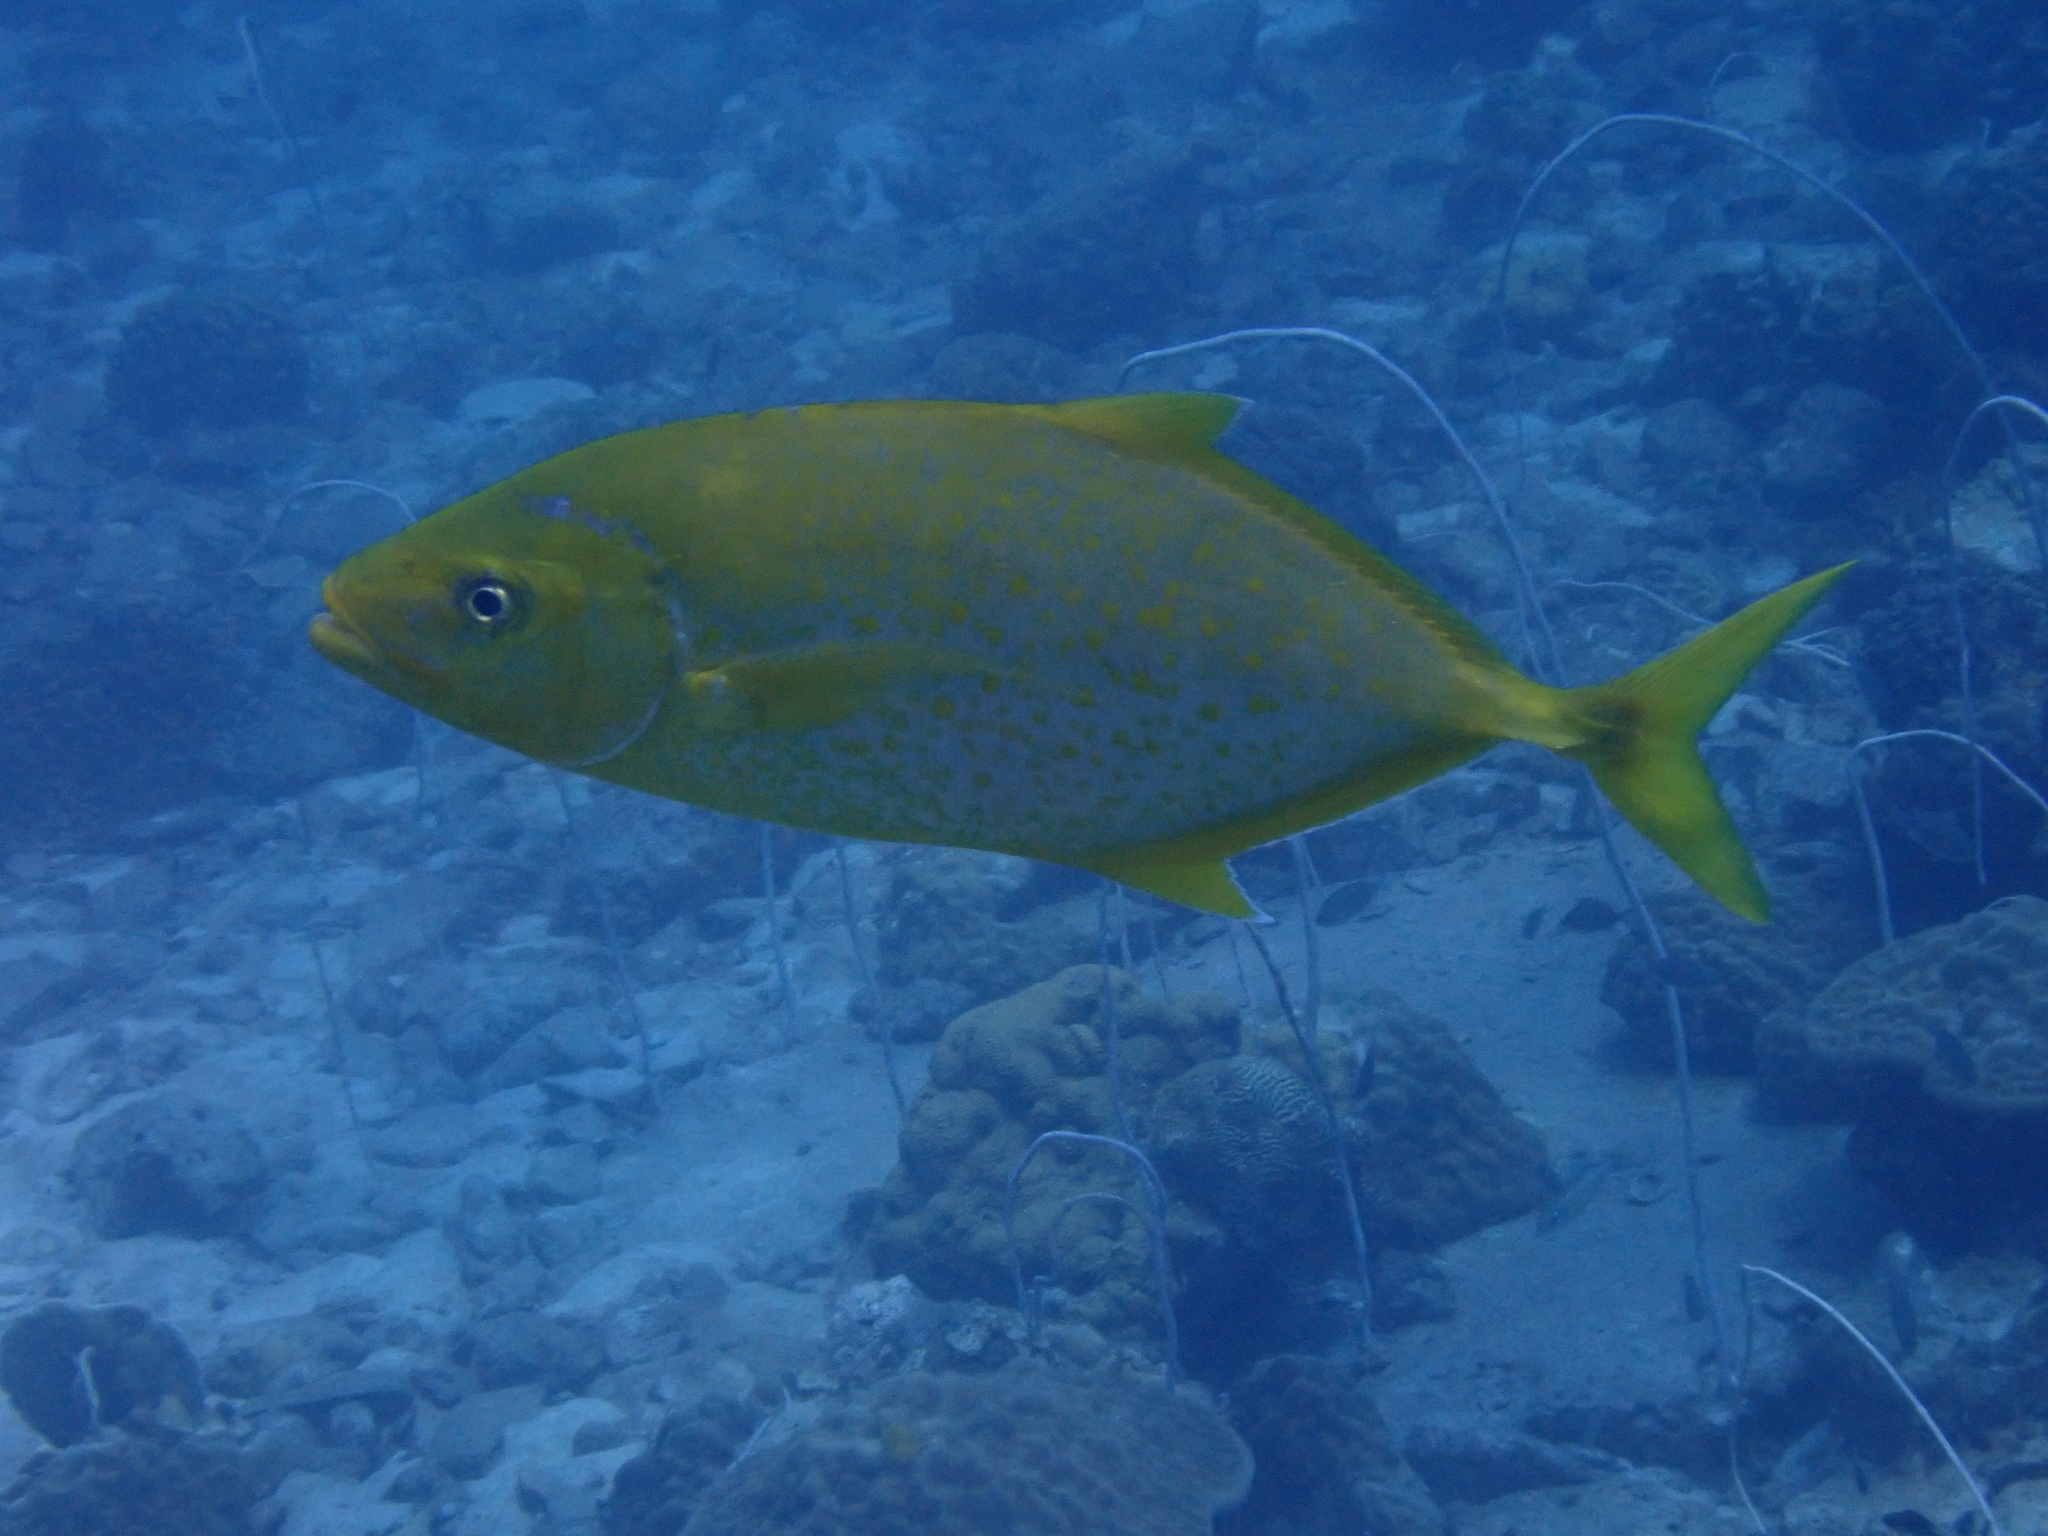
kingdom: Animalia
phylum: Chordata
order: Perciformes
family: Carangidae
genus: Flavocaranx
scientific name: Flavocaranx bajad
